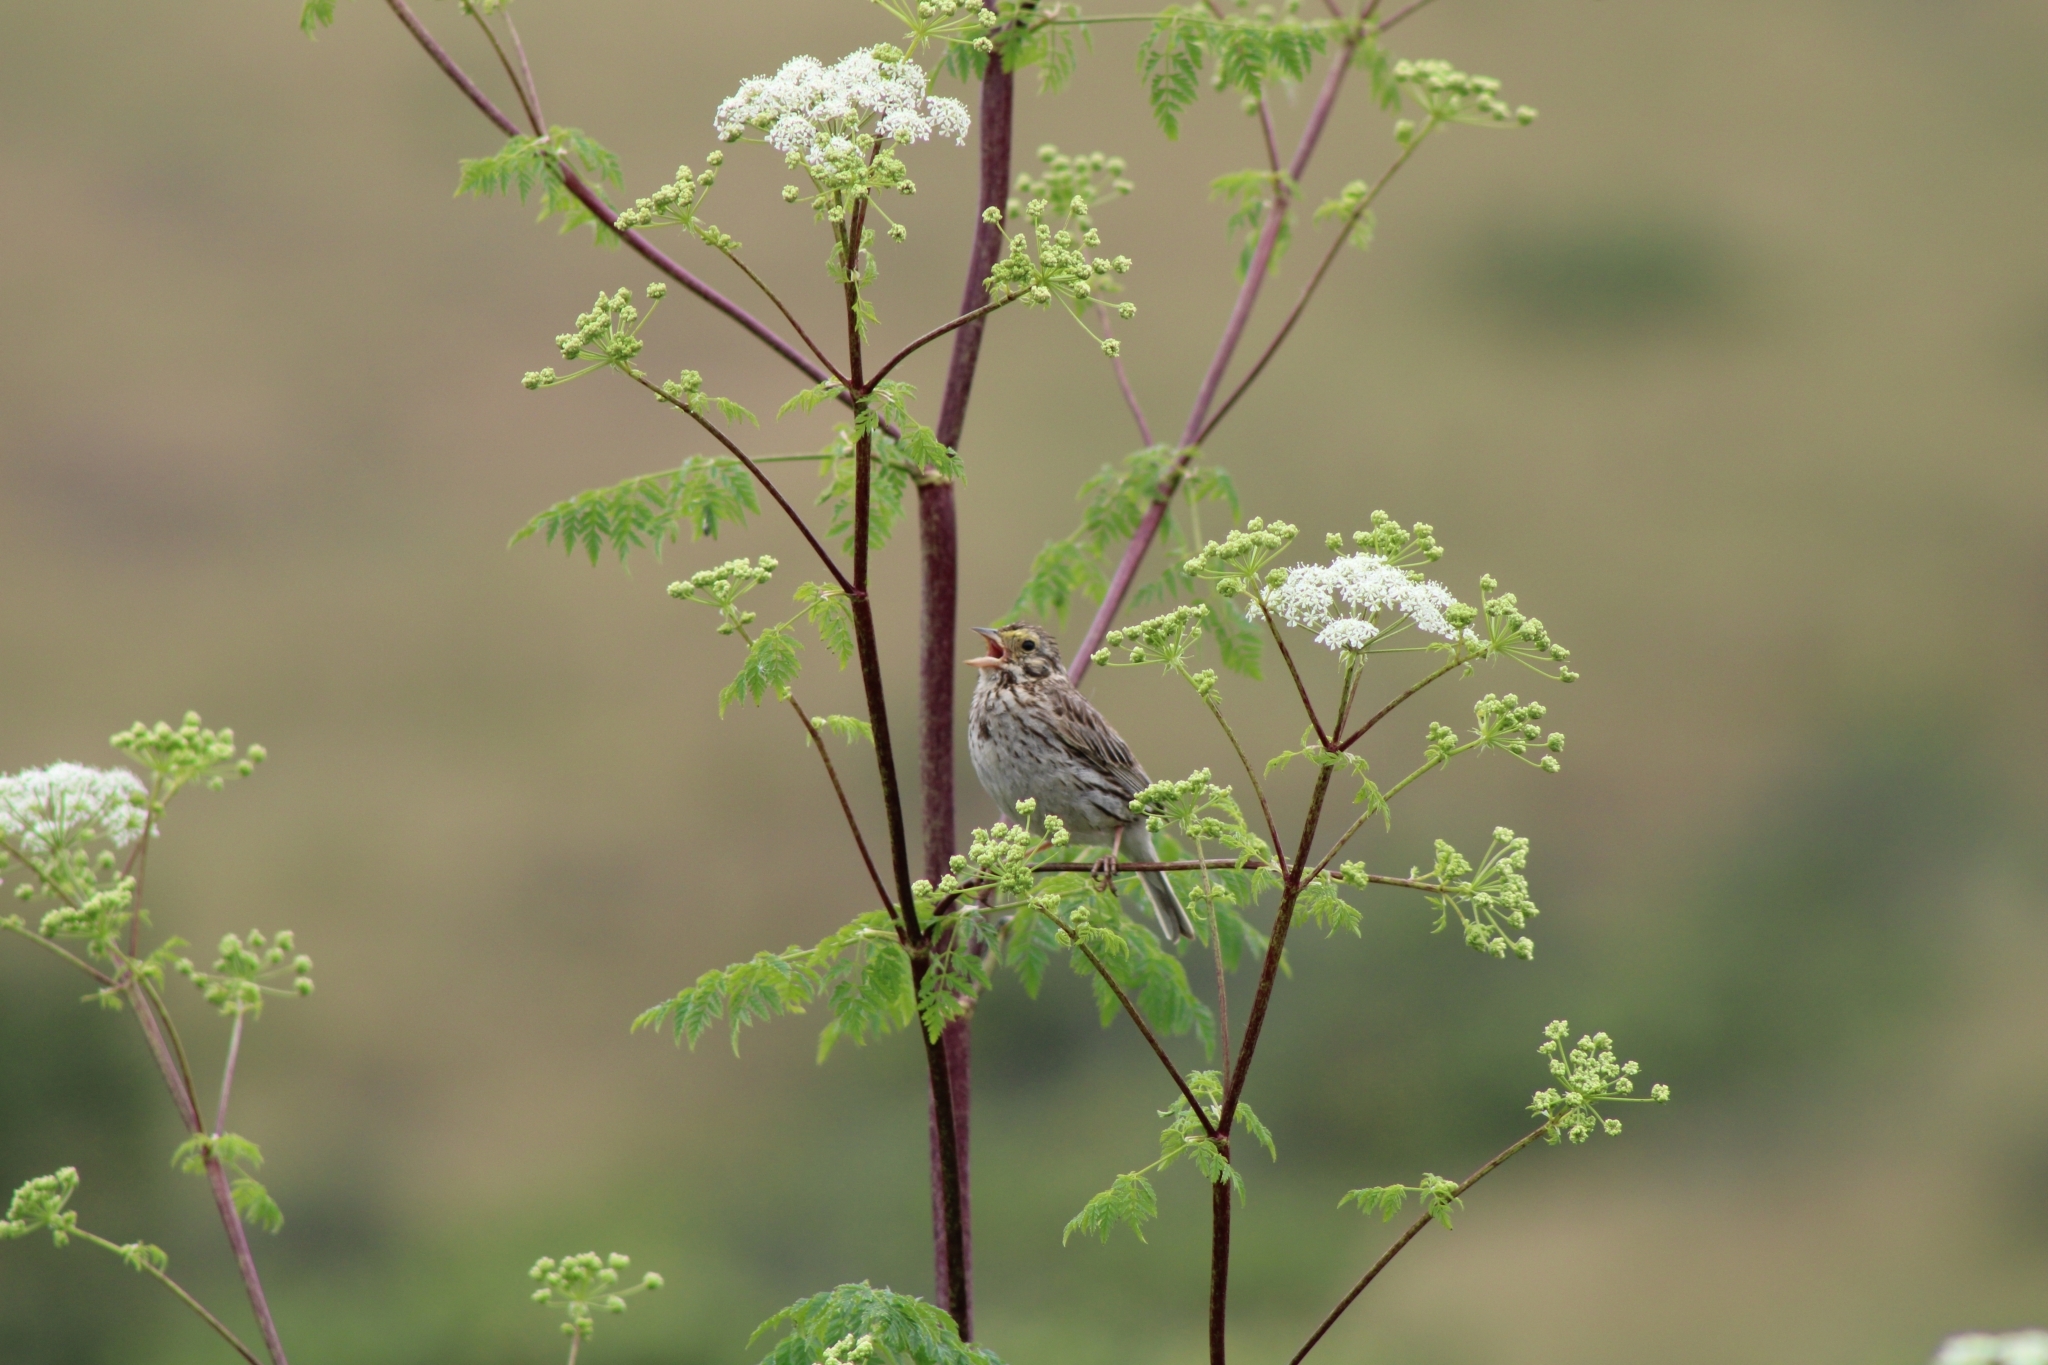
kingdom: Animalia
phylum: Chordata
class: Aves
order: Passeriformes
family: Passerellidae
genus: Passerculus
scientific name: Passerculus sandwichensis
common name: Savannah sparrow
